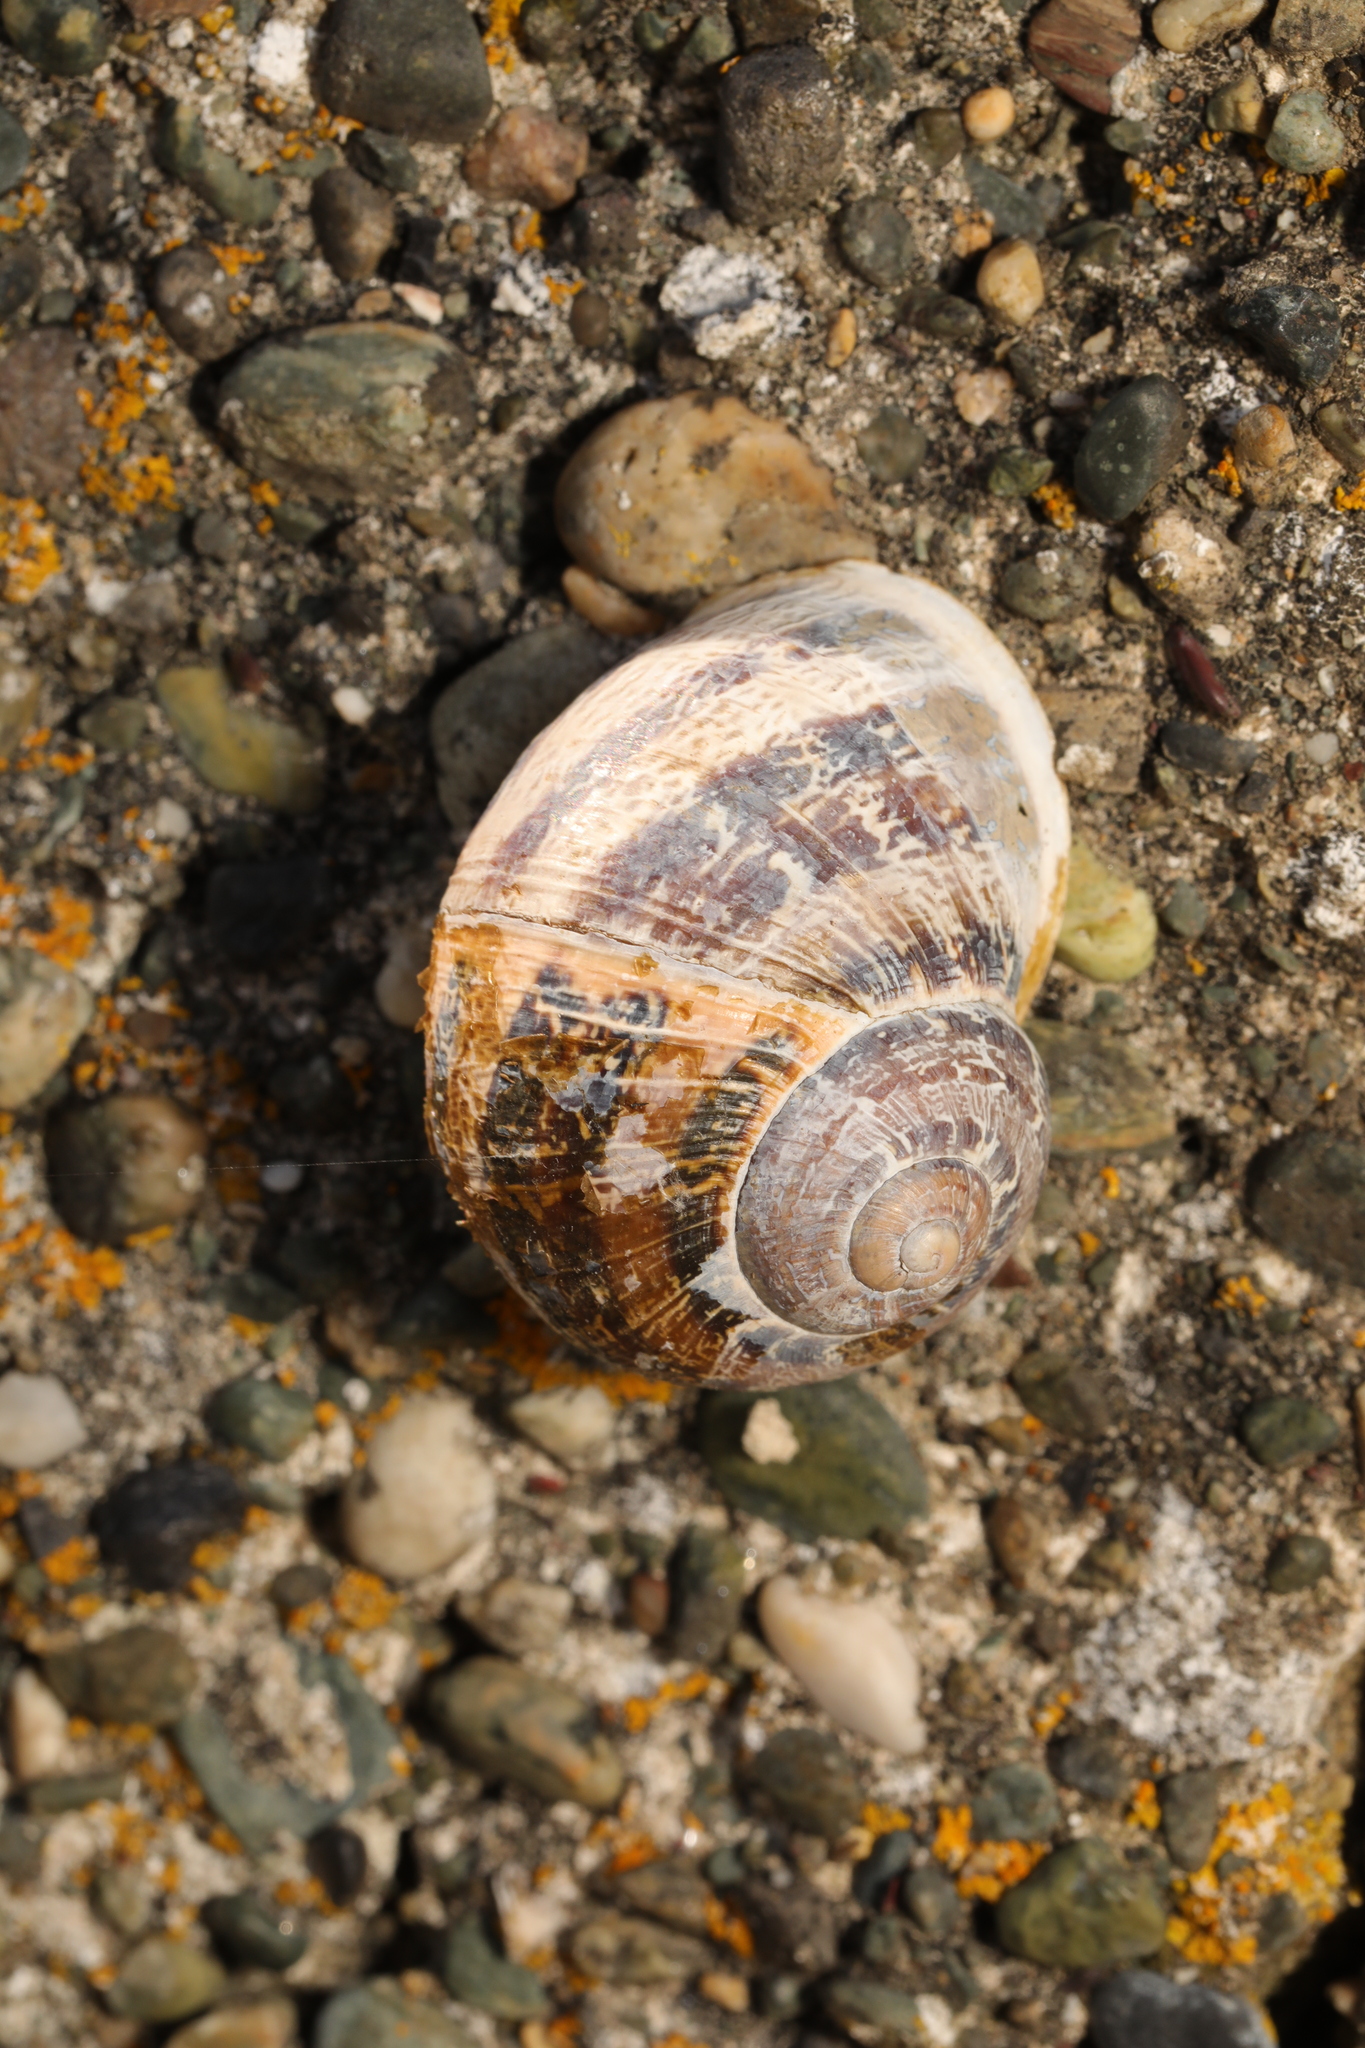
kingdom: Animalia
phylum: Mollusca
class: Gastropoda
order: Stylommatophora
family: Helicidae
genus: Cornu
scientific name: Cornu aspersum
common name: Brown garden snail
